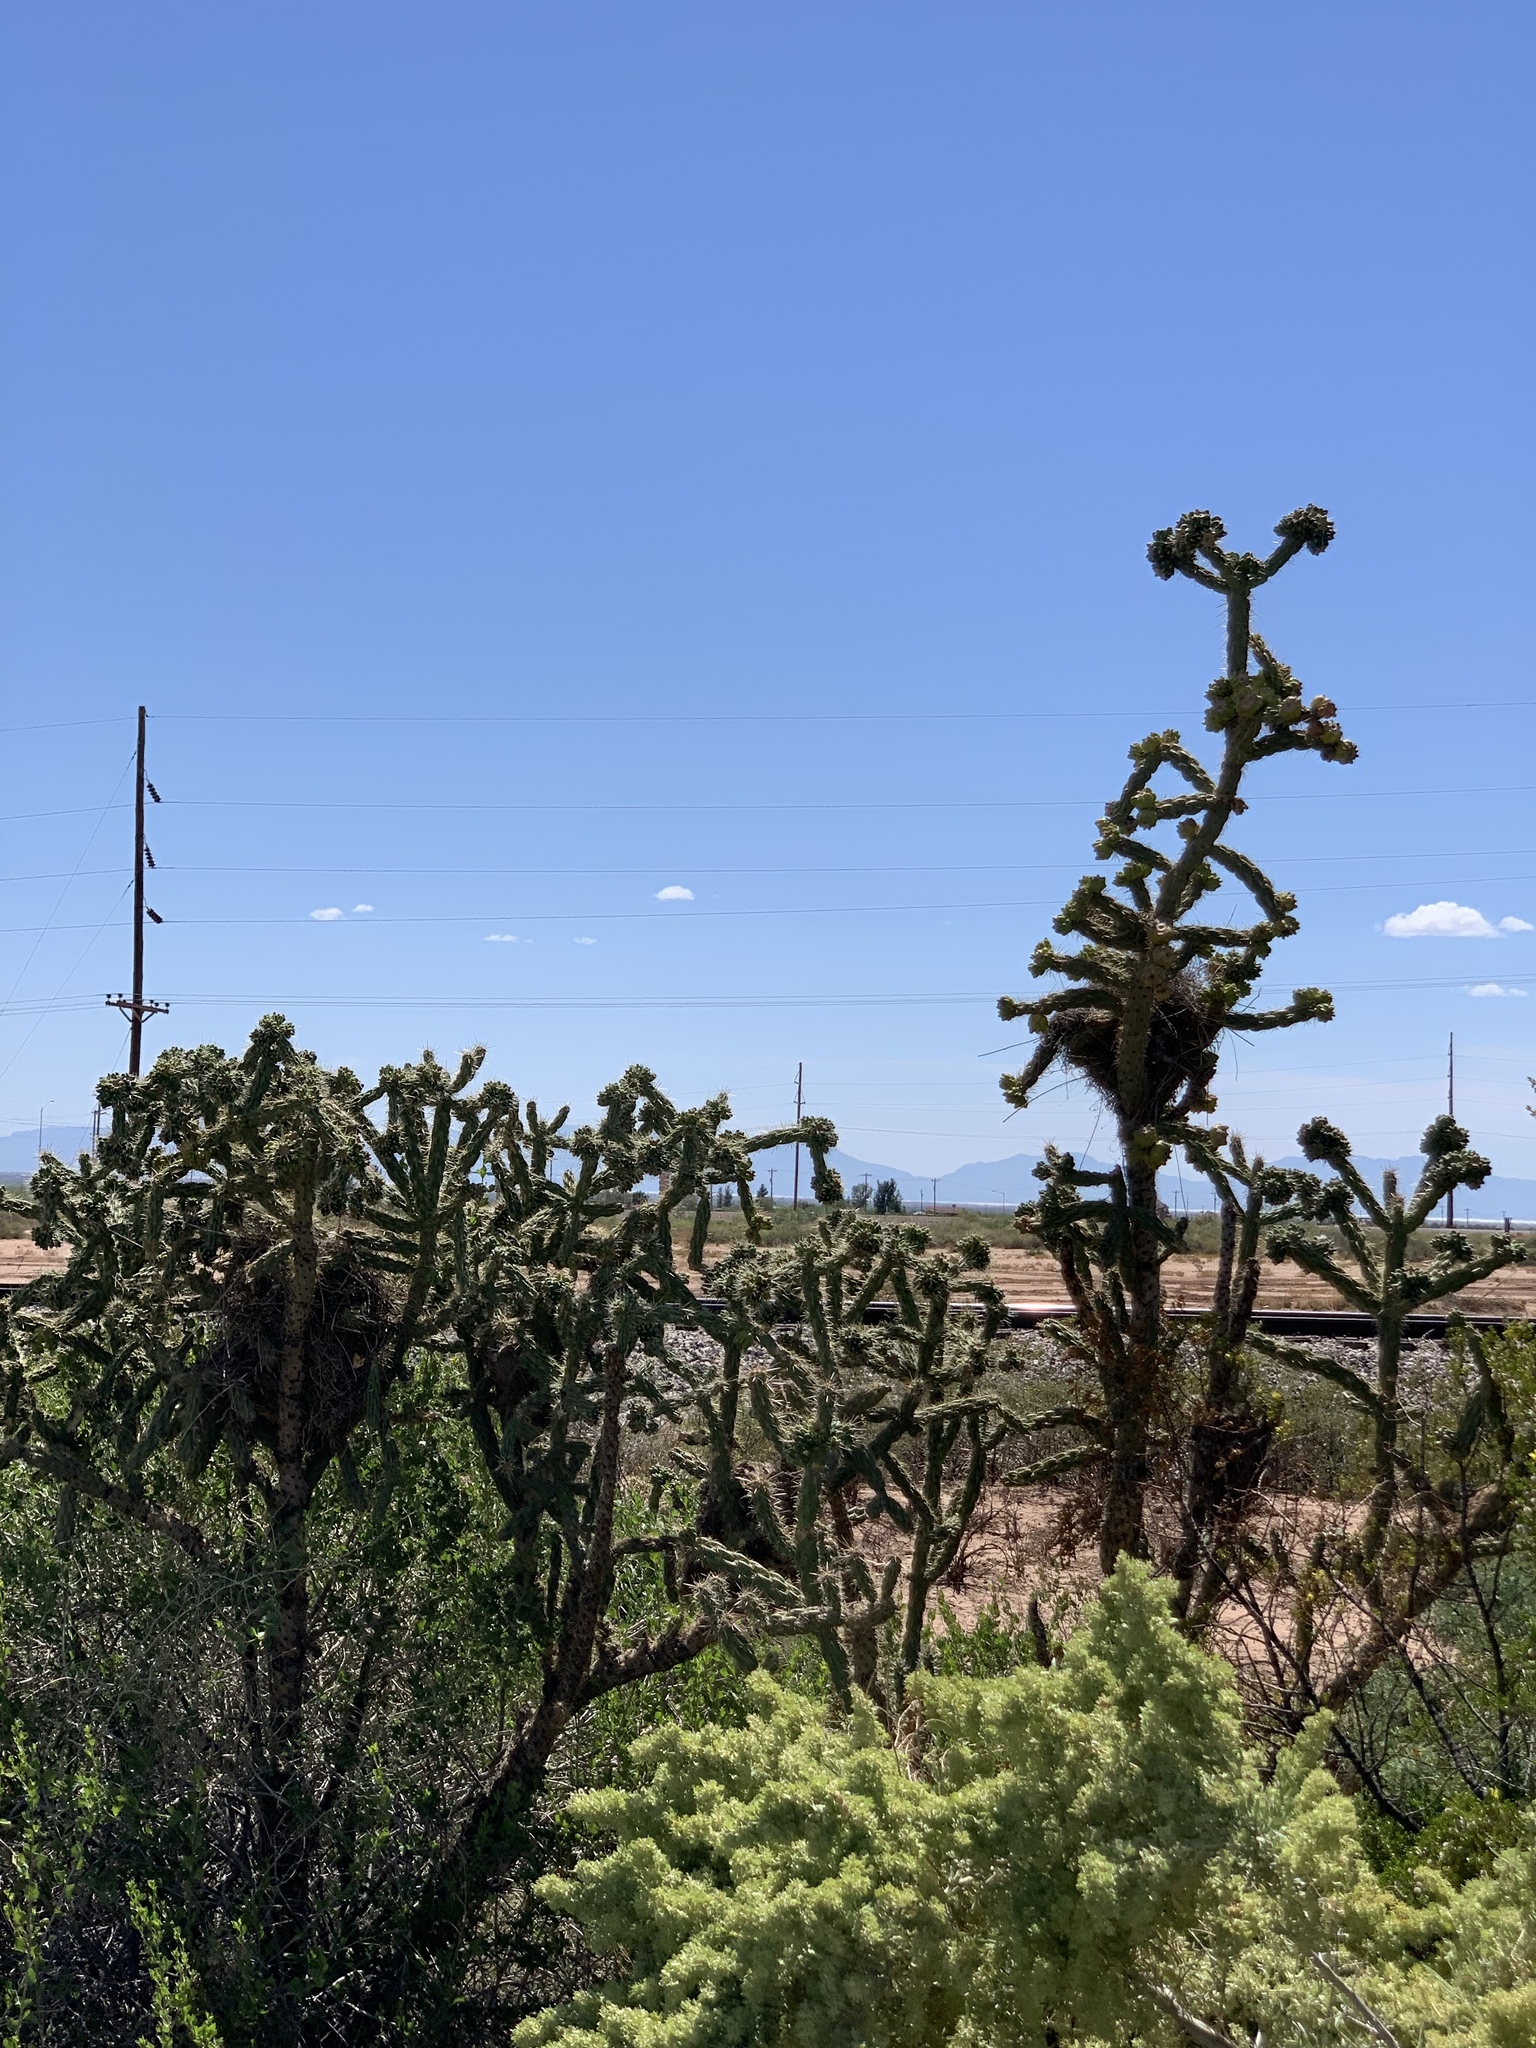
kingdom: Plantae
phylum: Tracheophyta
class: Magnoliopsida
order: Caryophyllales
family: Cactaceae
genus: Cylindropuntia
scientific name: Cylindropuntia imbricata
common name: Candelabrum cactus
